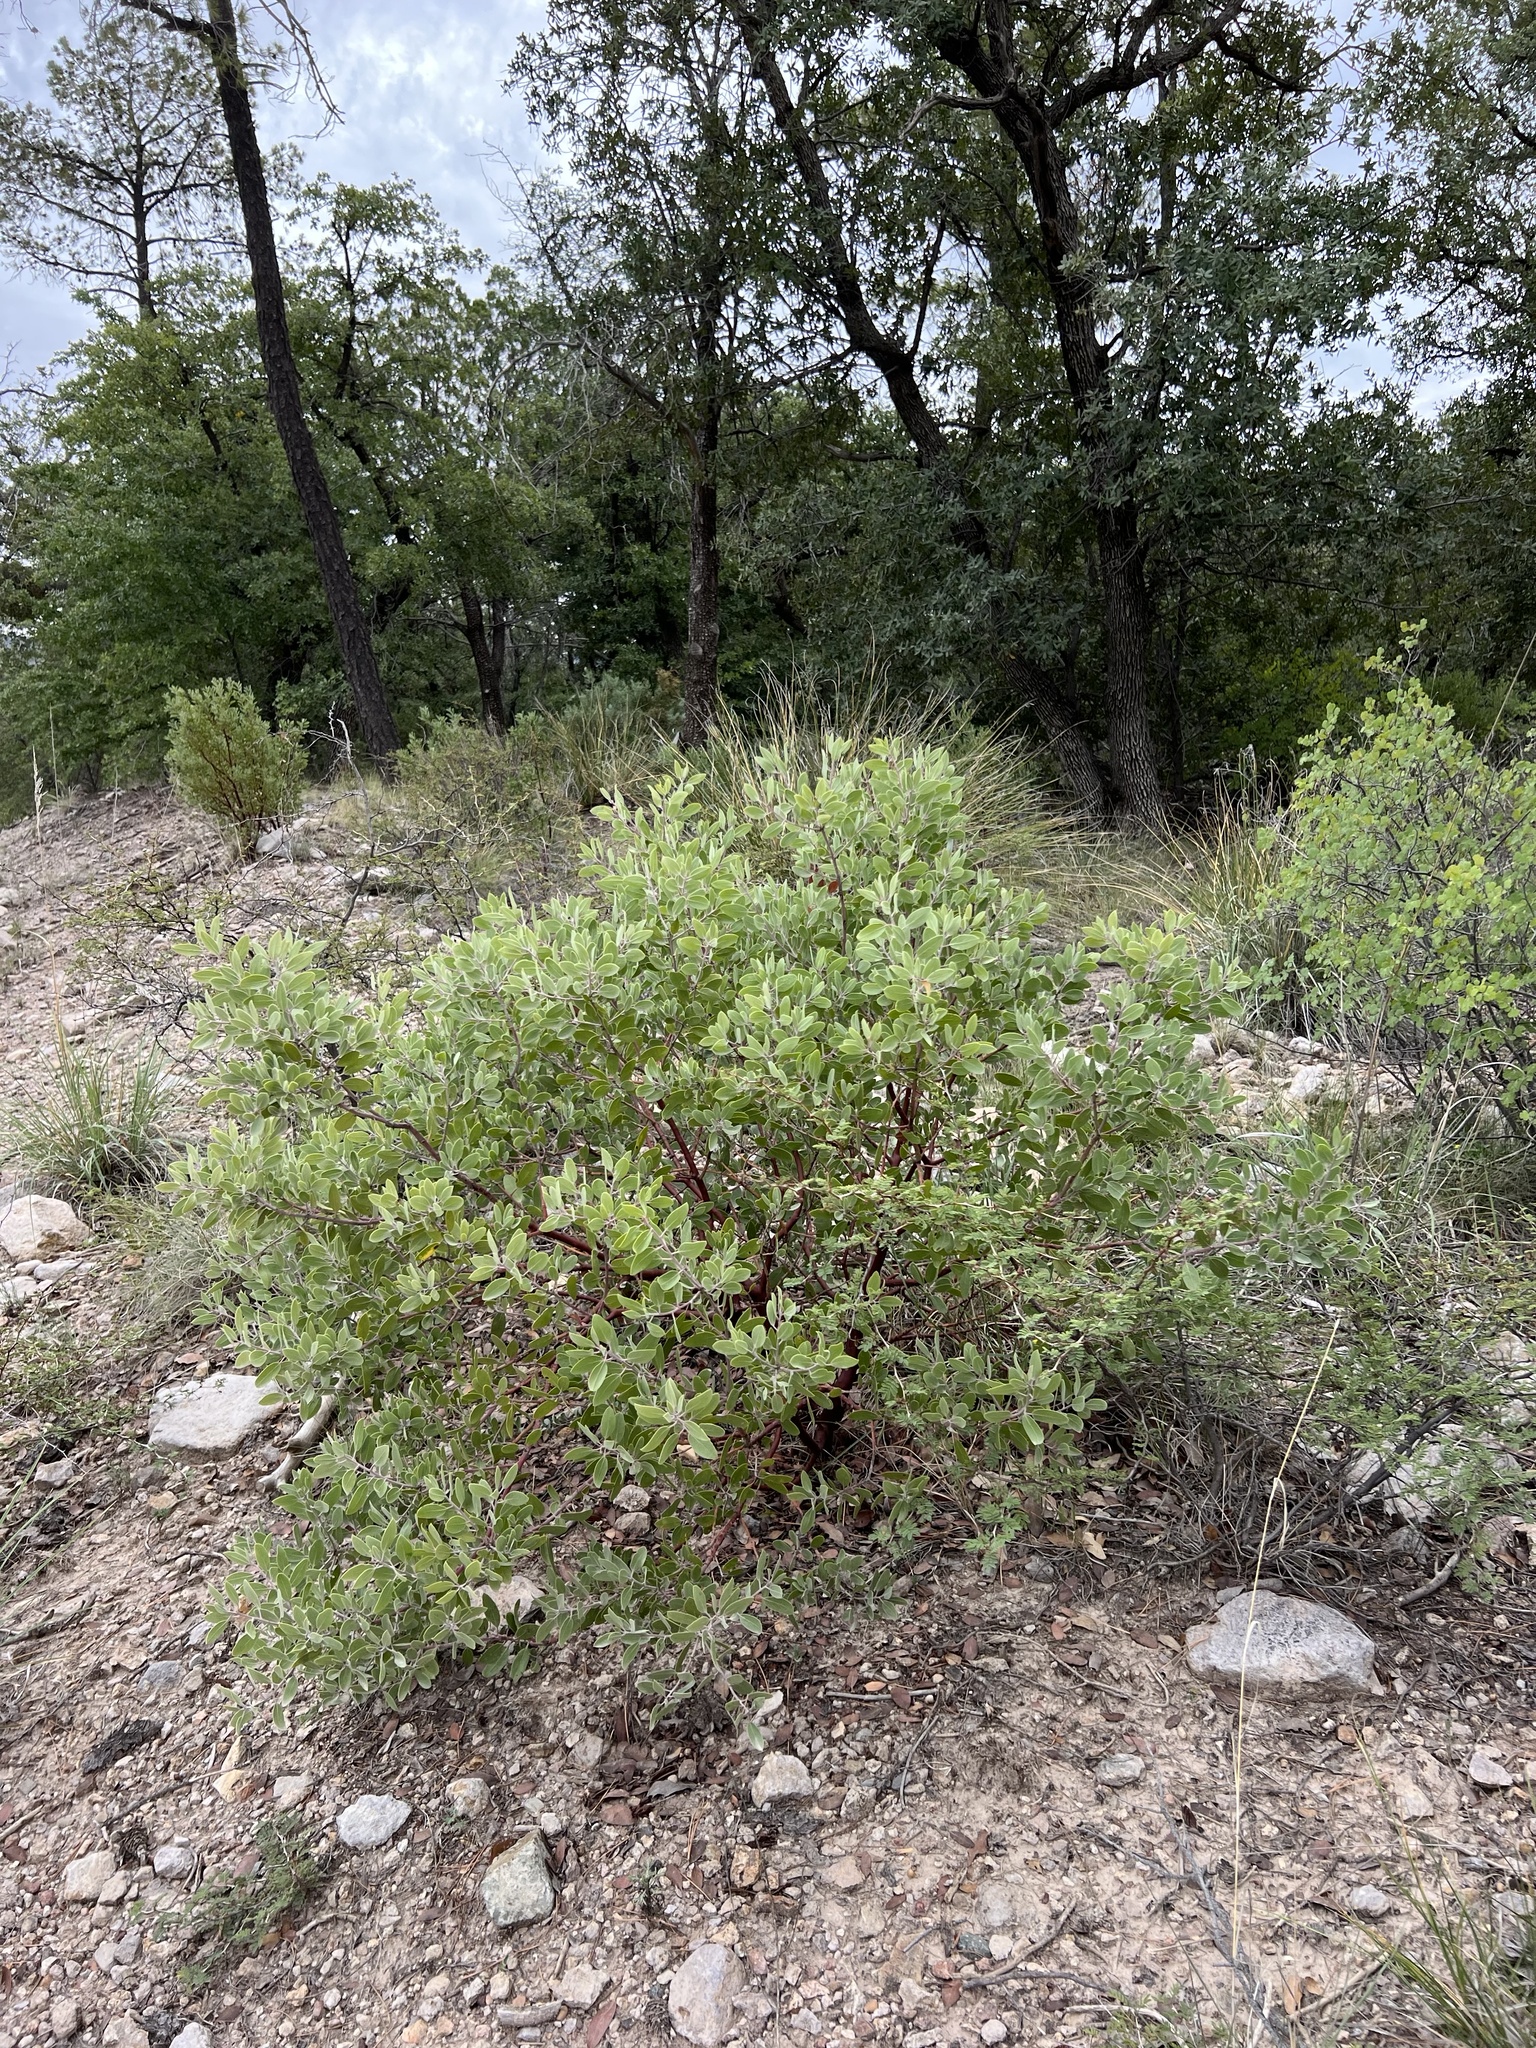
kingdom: Plantae
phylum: Tracheophyta
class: Magnoliopsida
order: Ericales
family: Ericaceae
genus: Arctostaphylos
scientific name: Arctostaphylos pungens
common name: Mexican manzanita
